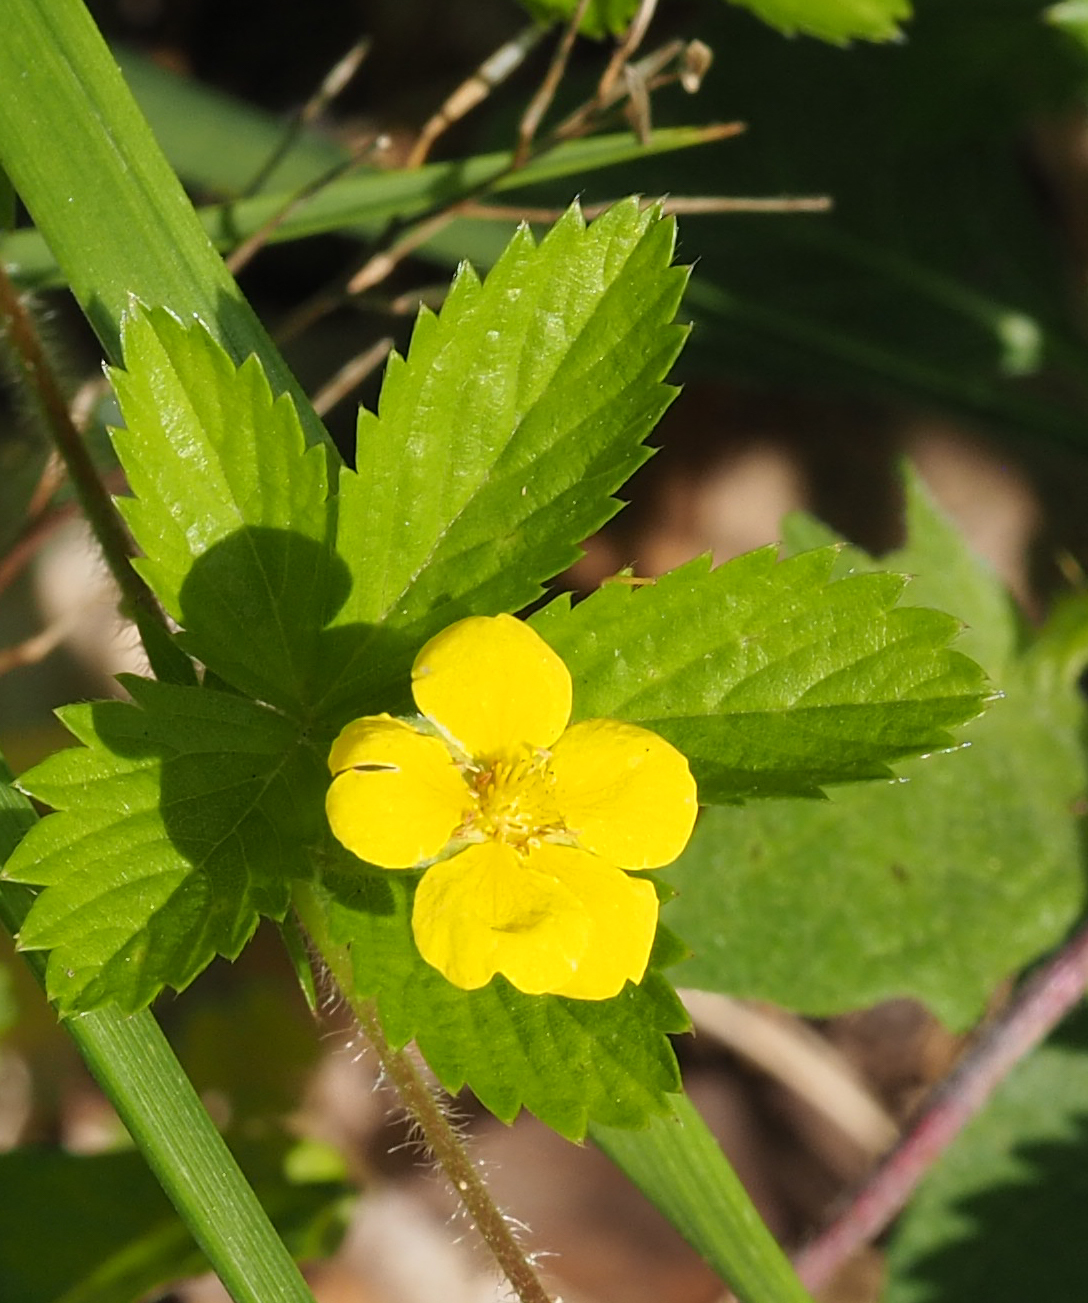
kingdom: Plantae
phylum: Tracheophyta
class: Magnoliopsida
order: Rosales
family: Rosaceae
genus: Potentilla
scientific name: Potentilla simplex
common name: Old field cinquefoil
